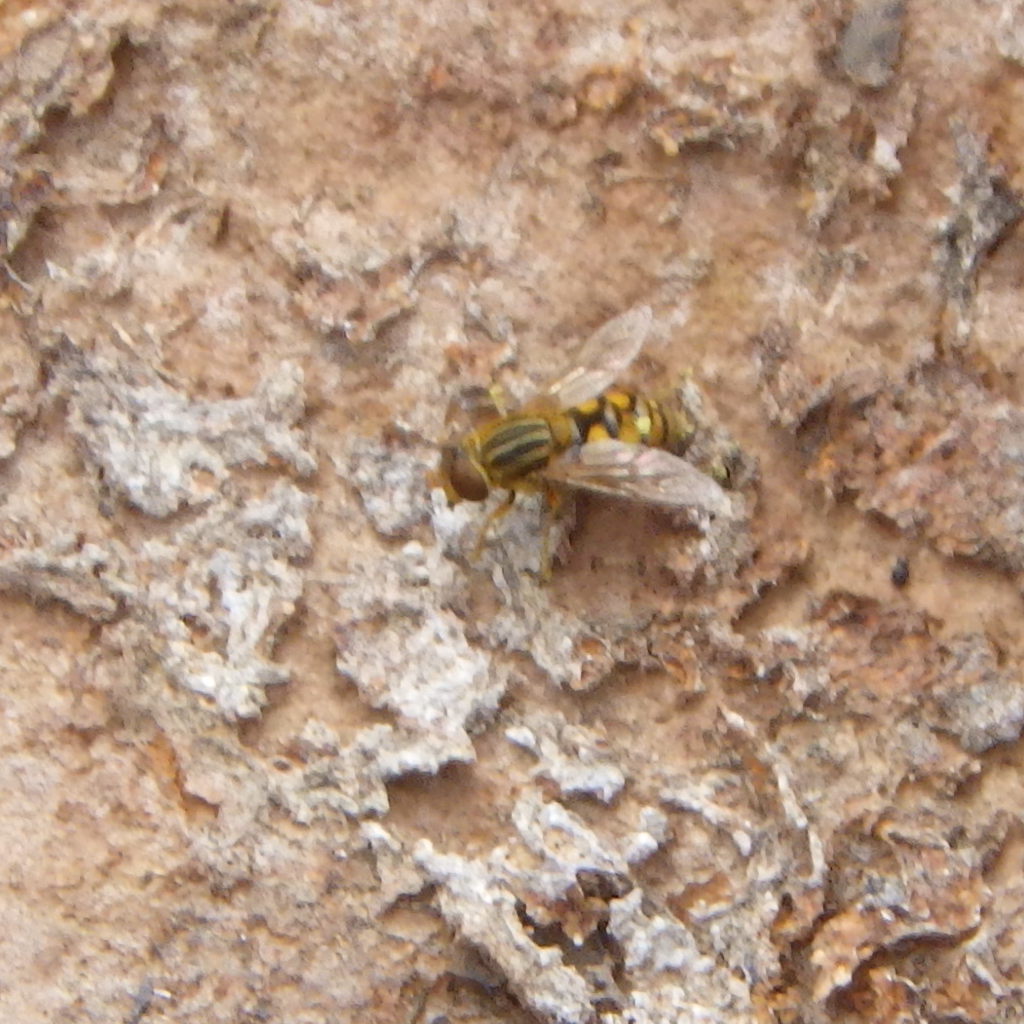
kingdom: Animalia
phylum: Arthropoda
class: Insecta
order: Diptera
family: Syrphidae
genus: Parhelophilus
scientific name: Parhelophilus laetus
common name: Common bog fly
